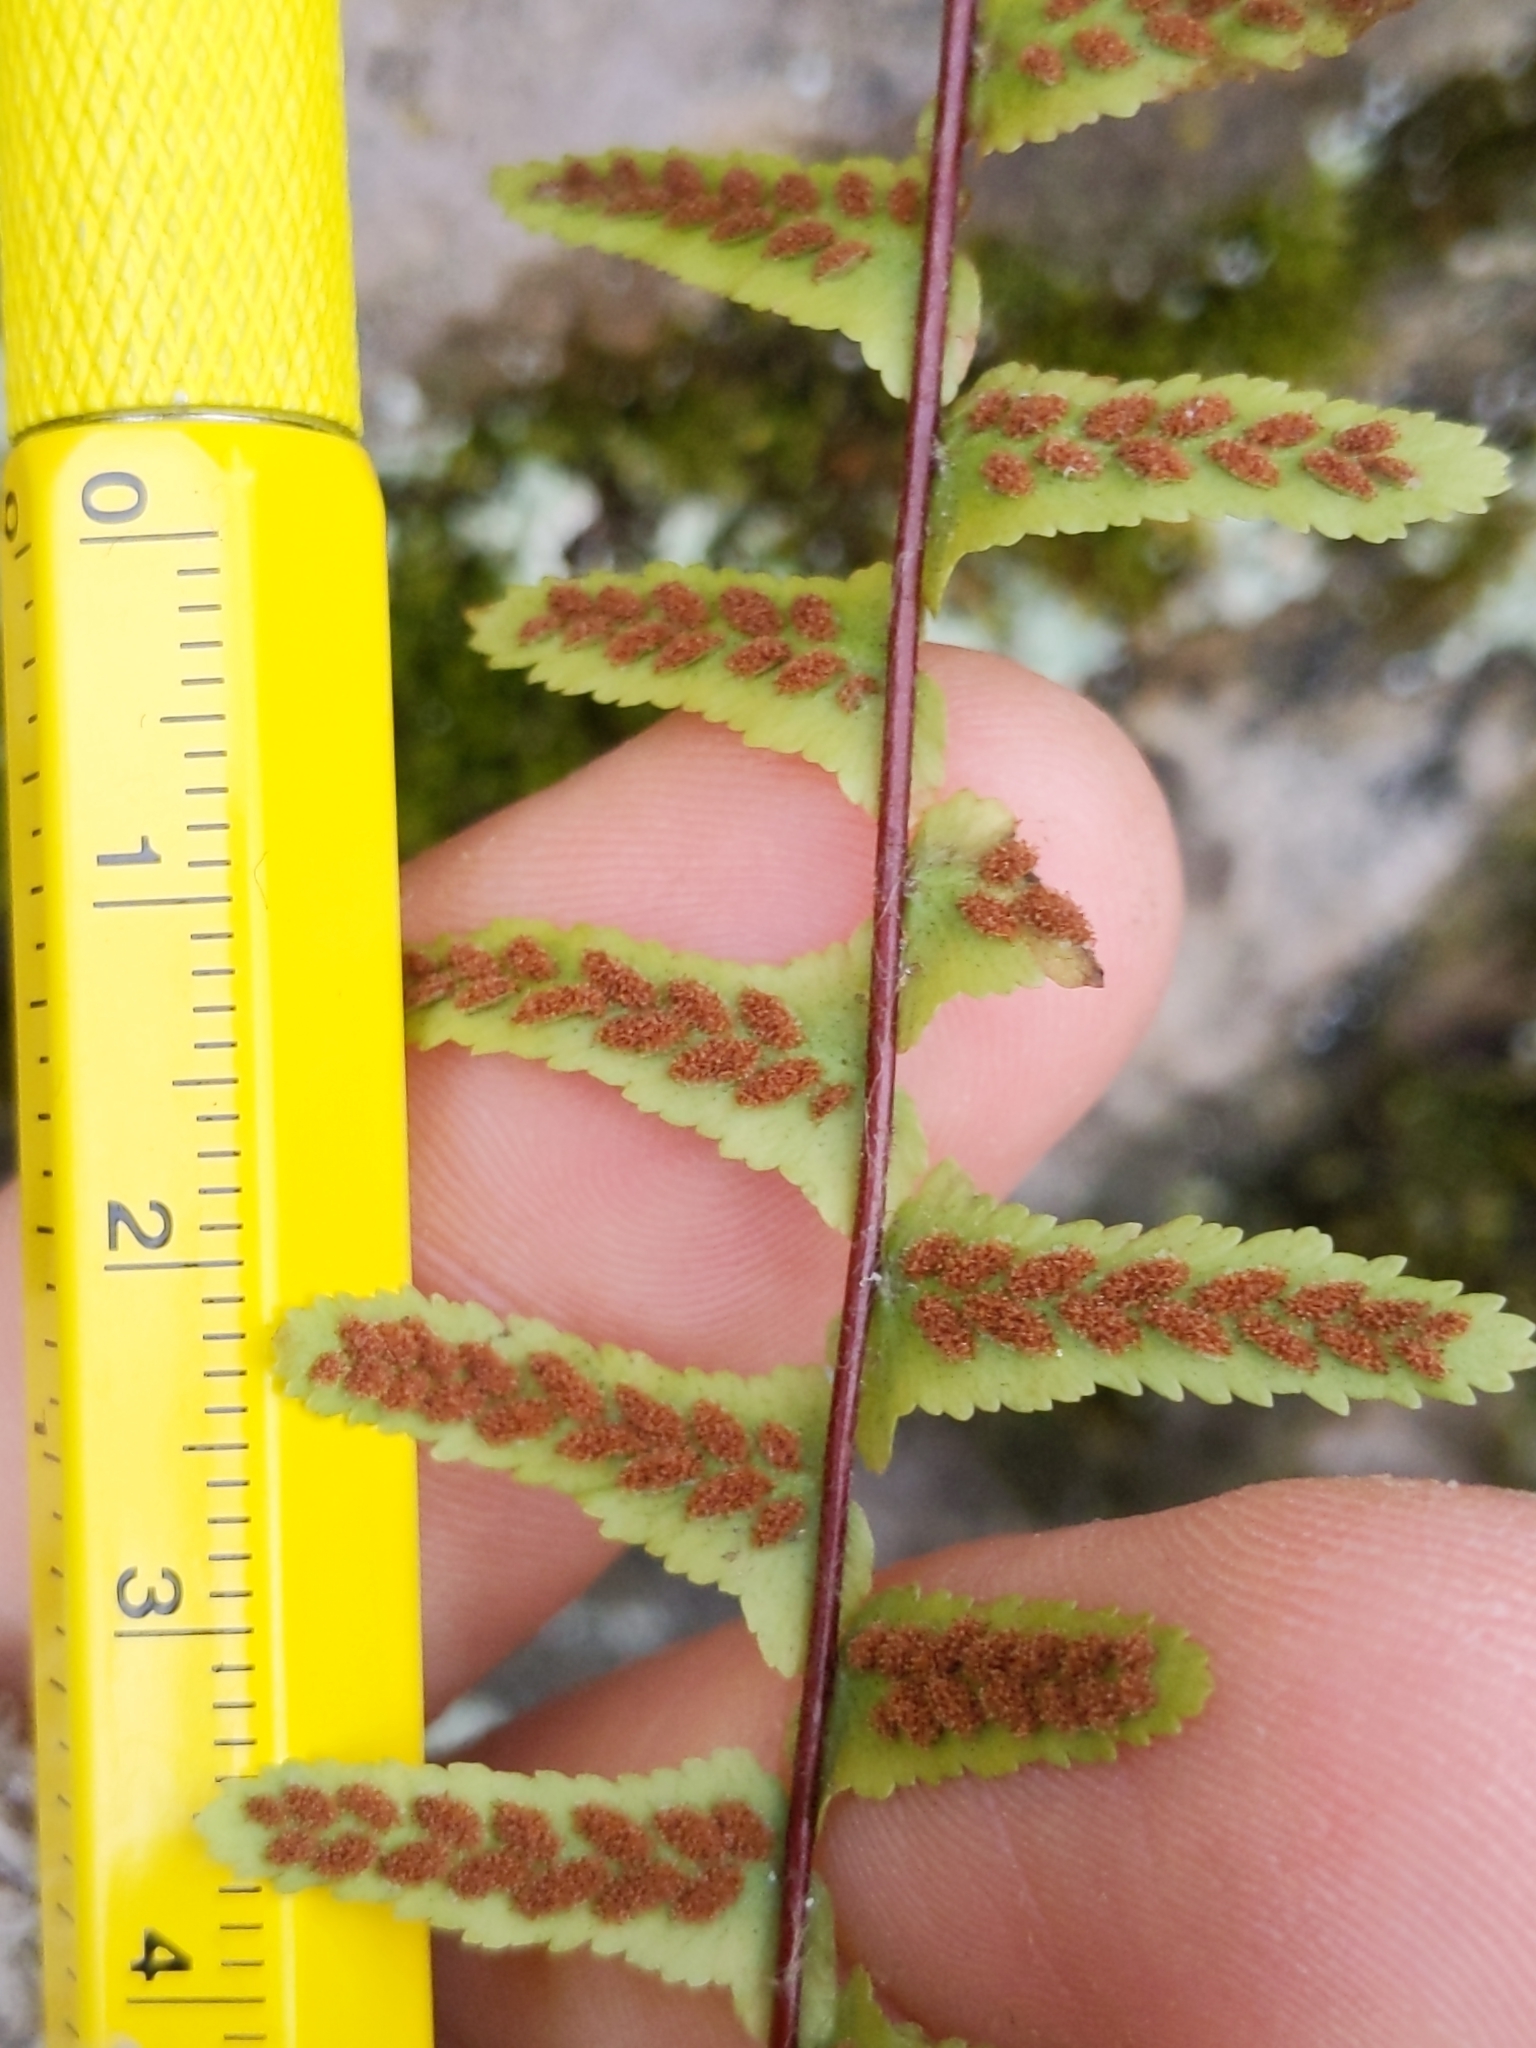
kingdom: Plantae
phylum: Tracheophyta
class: Polypodiopsida
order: Polypodiales
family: Aspleniaceae
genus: Asplenium
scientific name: Asplenium platyneuron
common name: Ebony spleenwort
